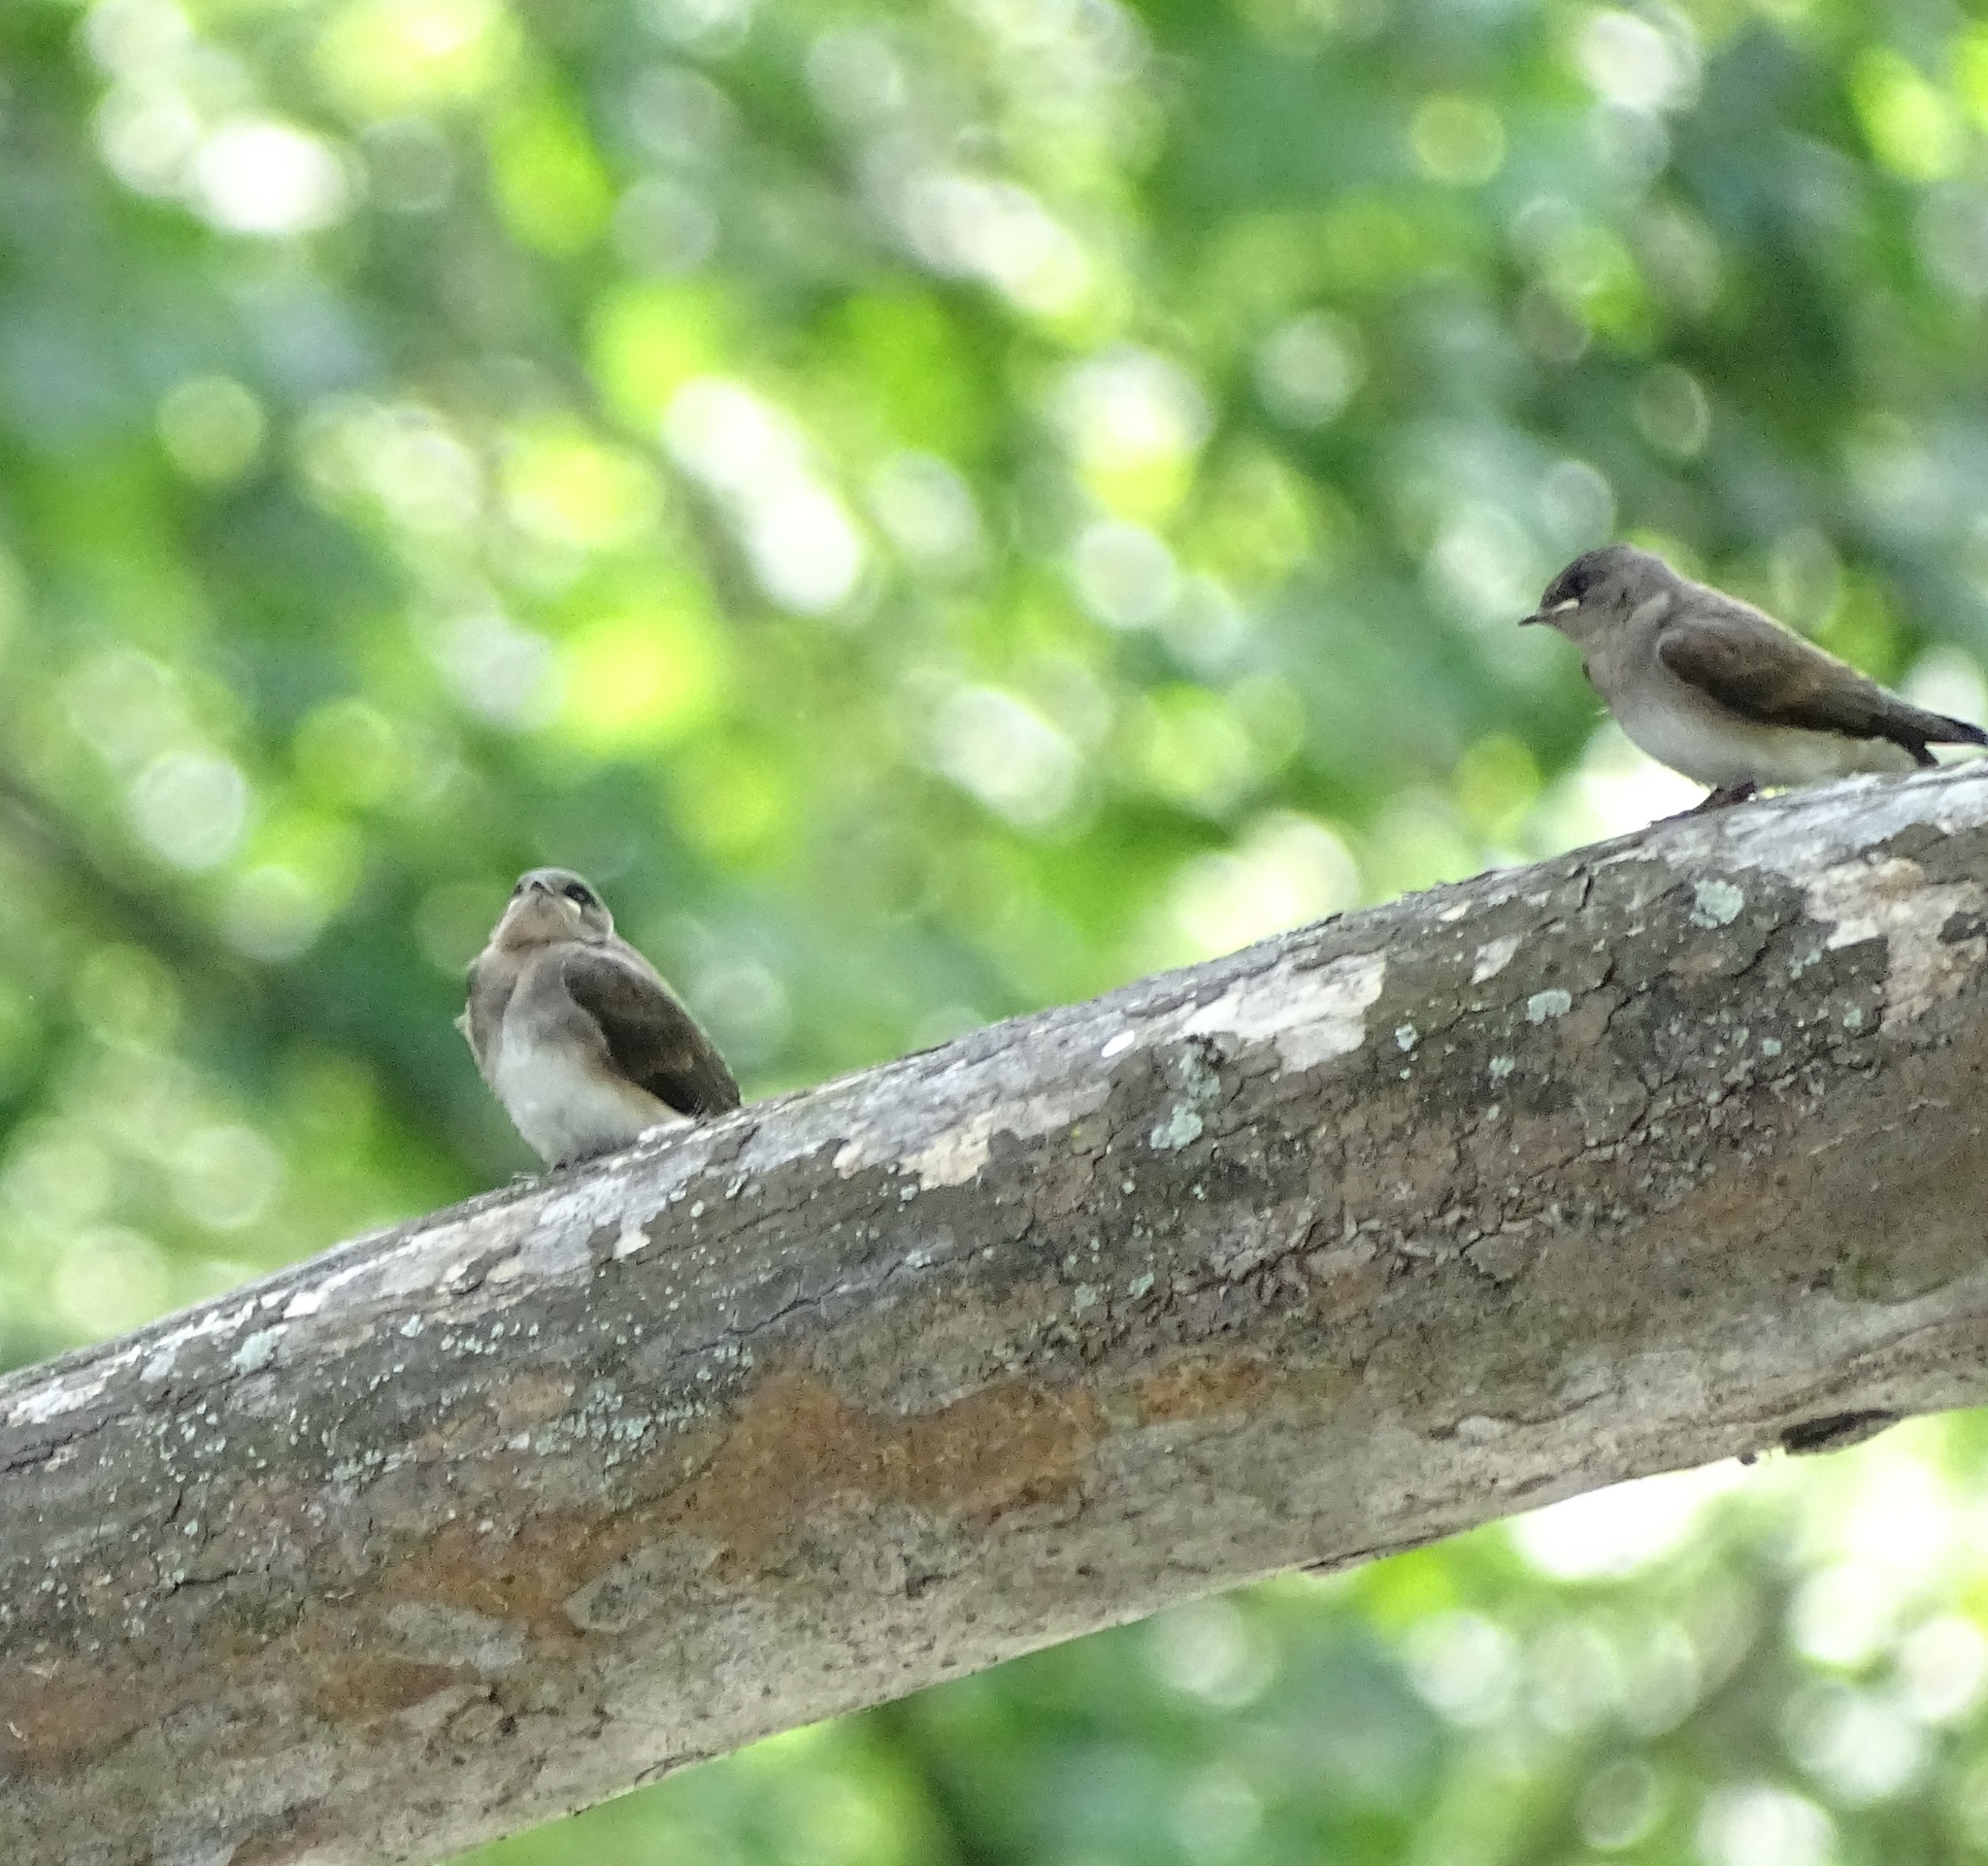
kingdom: Animalia
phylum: Chordata
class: Aves
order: Passeriformes
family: Hirundinidae
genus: Stelgidopteryx
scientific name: Stelgidopteryx serripennis
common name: Northern rough-winged swallow
